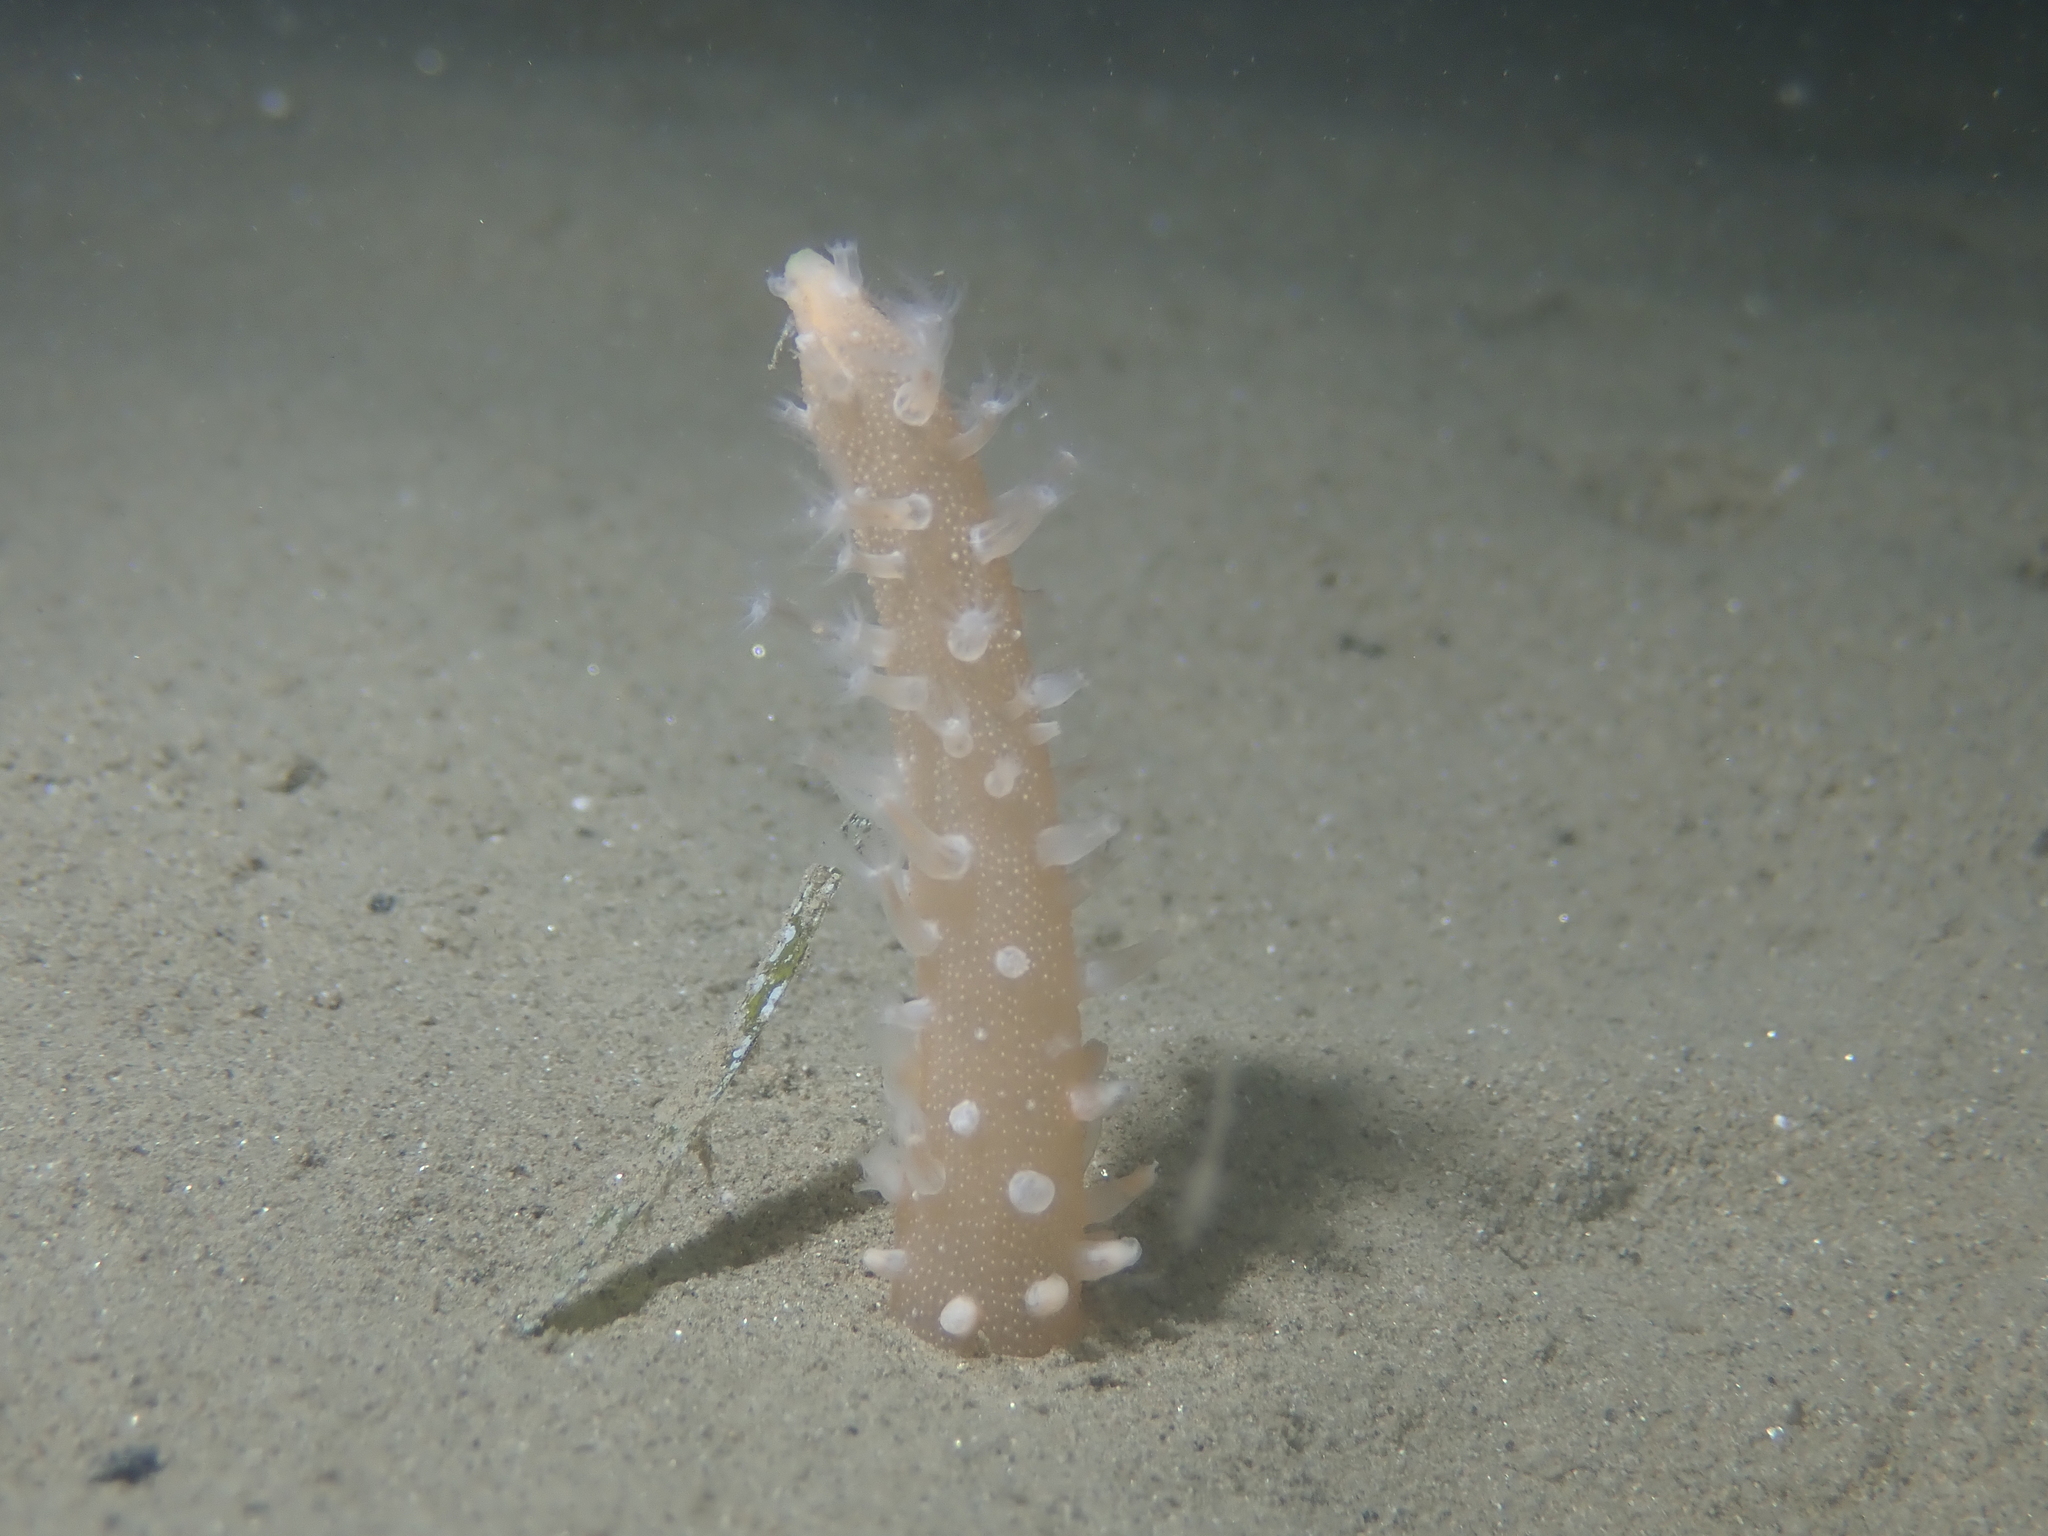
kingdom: Animalia
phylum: Cnidaria
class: Anthozoa
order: Scleralcyonacea
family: Veretillidae
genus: Veretillum
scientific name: Veretillum cynomorium
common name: Finger-shaped sea-pen
